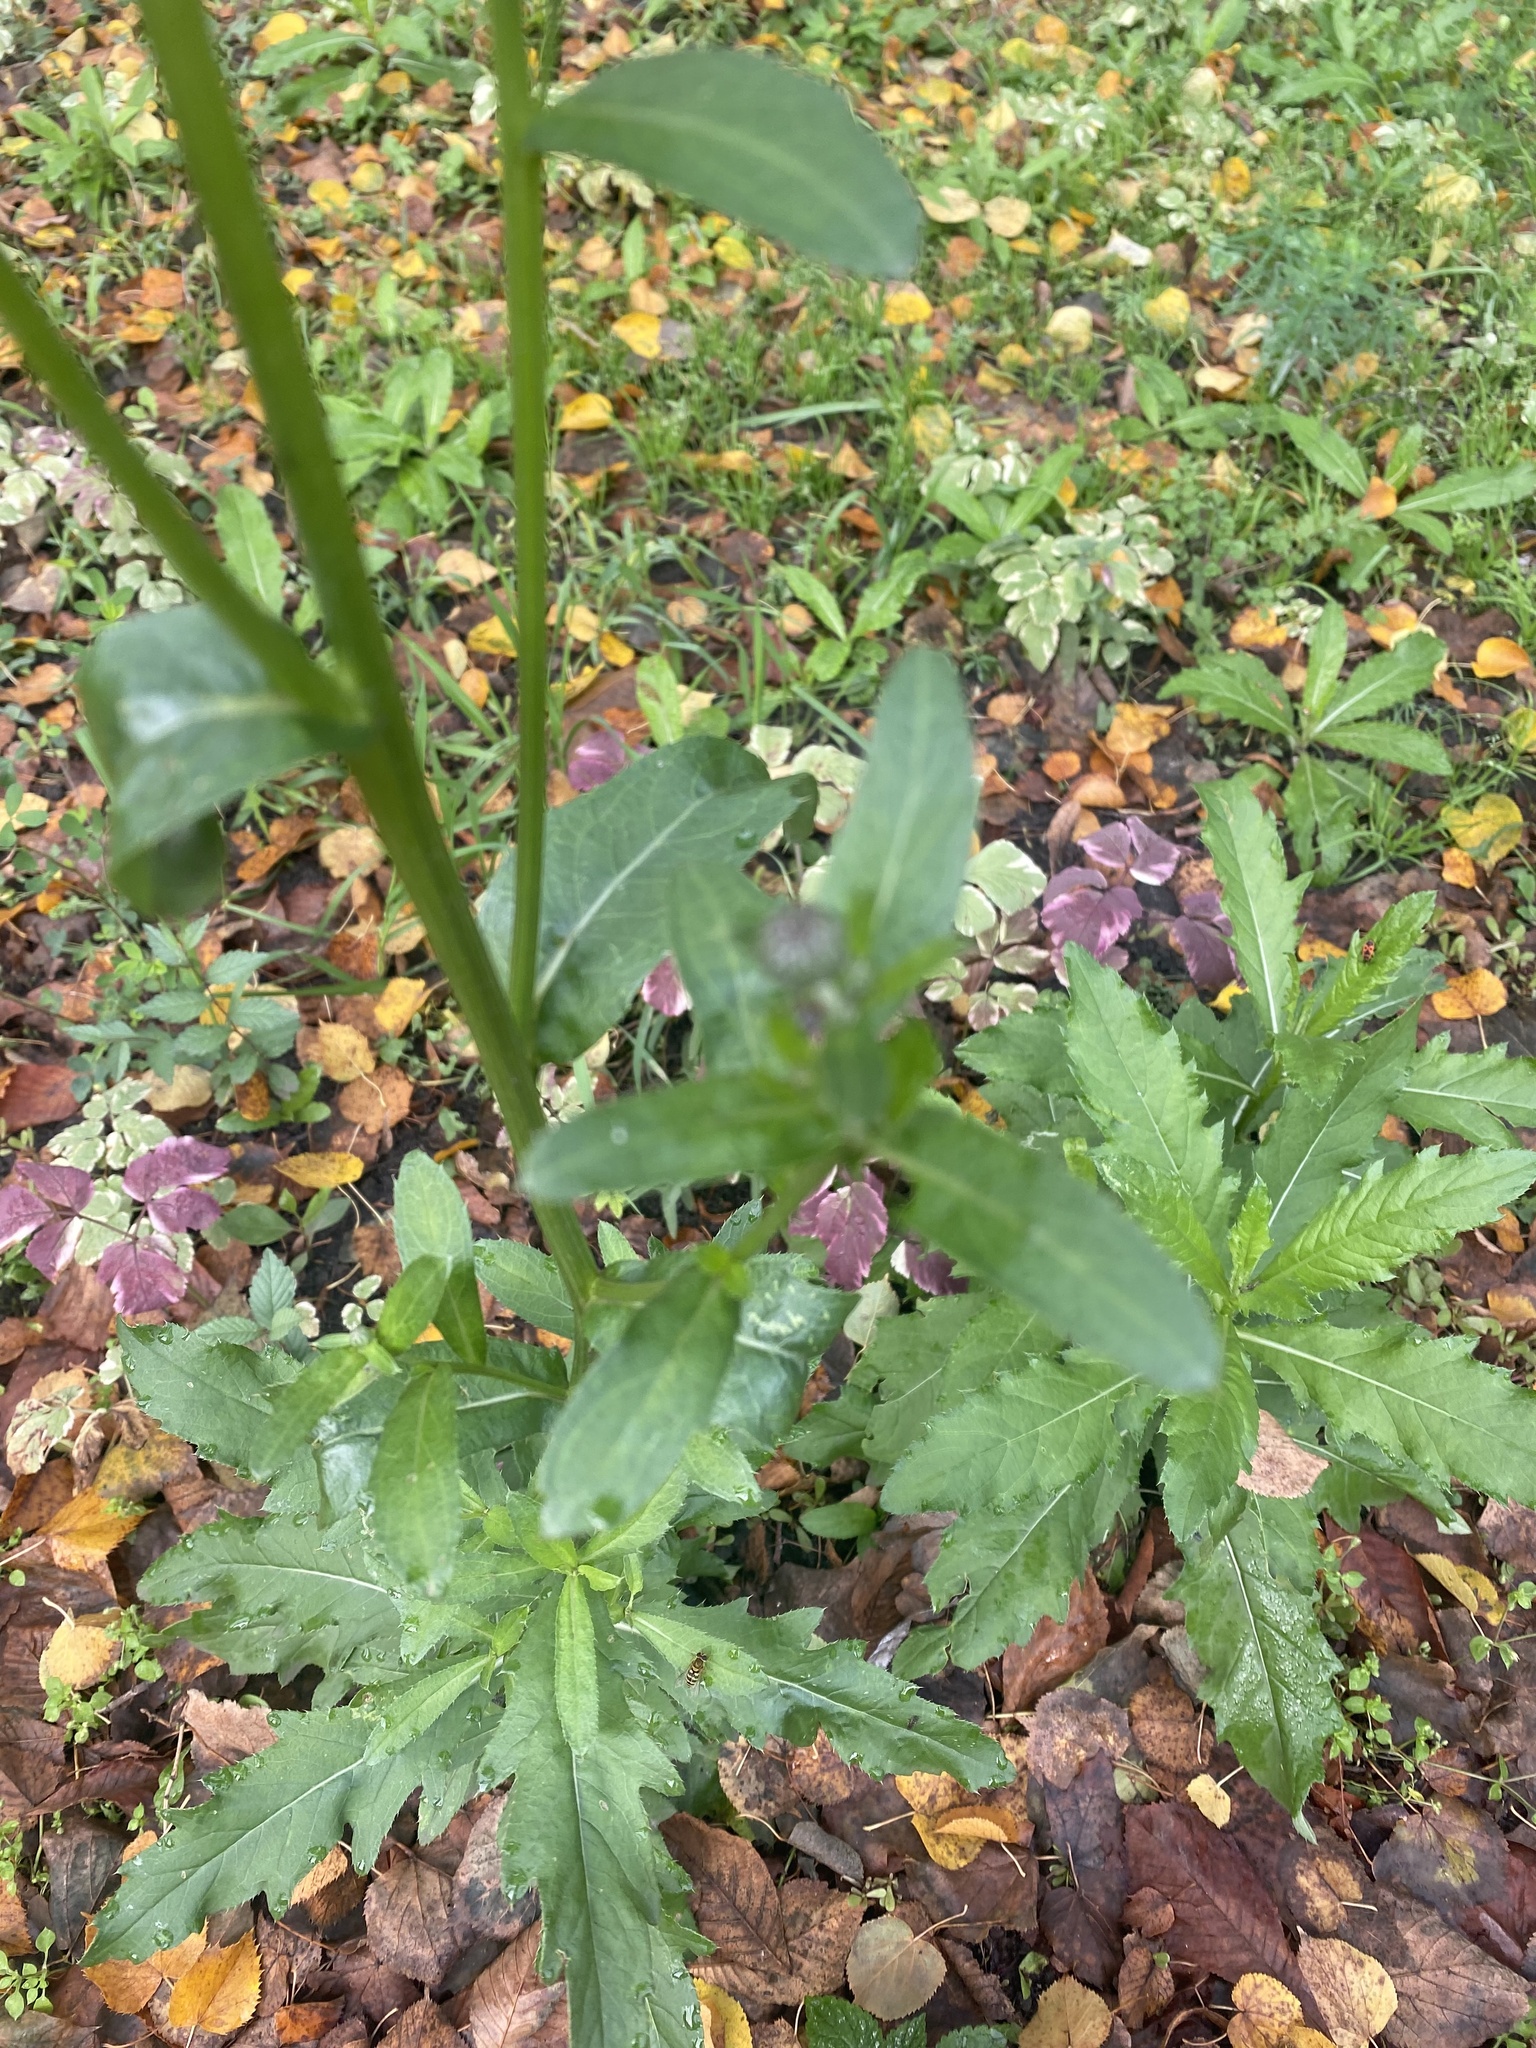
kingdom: Plantae
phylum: Tracheophyta
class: Magnoliopsida
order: Asterales
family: Asteraceae
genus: Cirsium
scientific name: Cirsium arvense
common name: Creeping thistle
